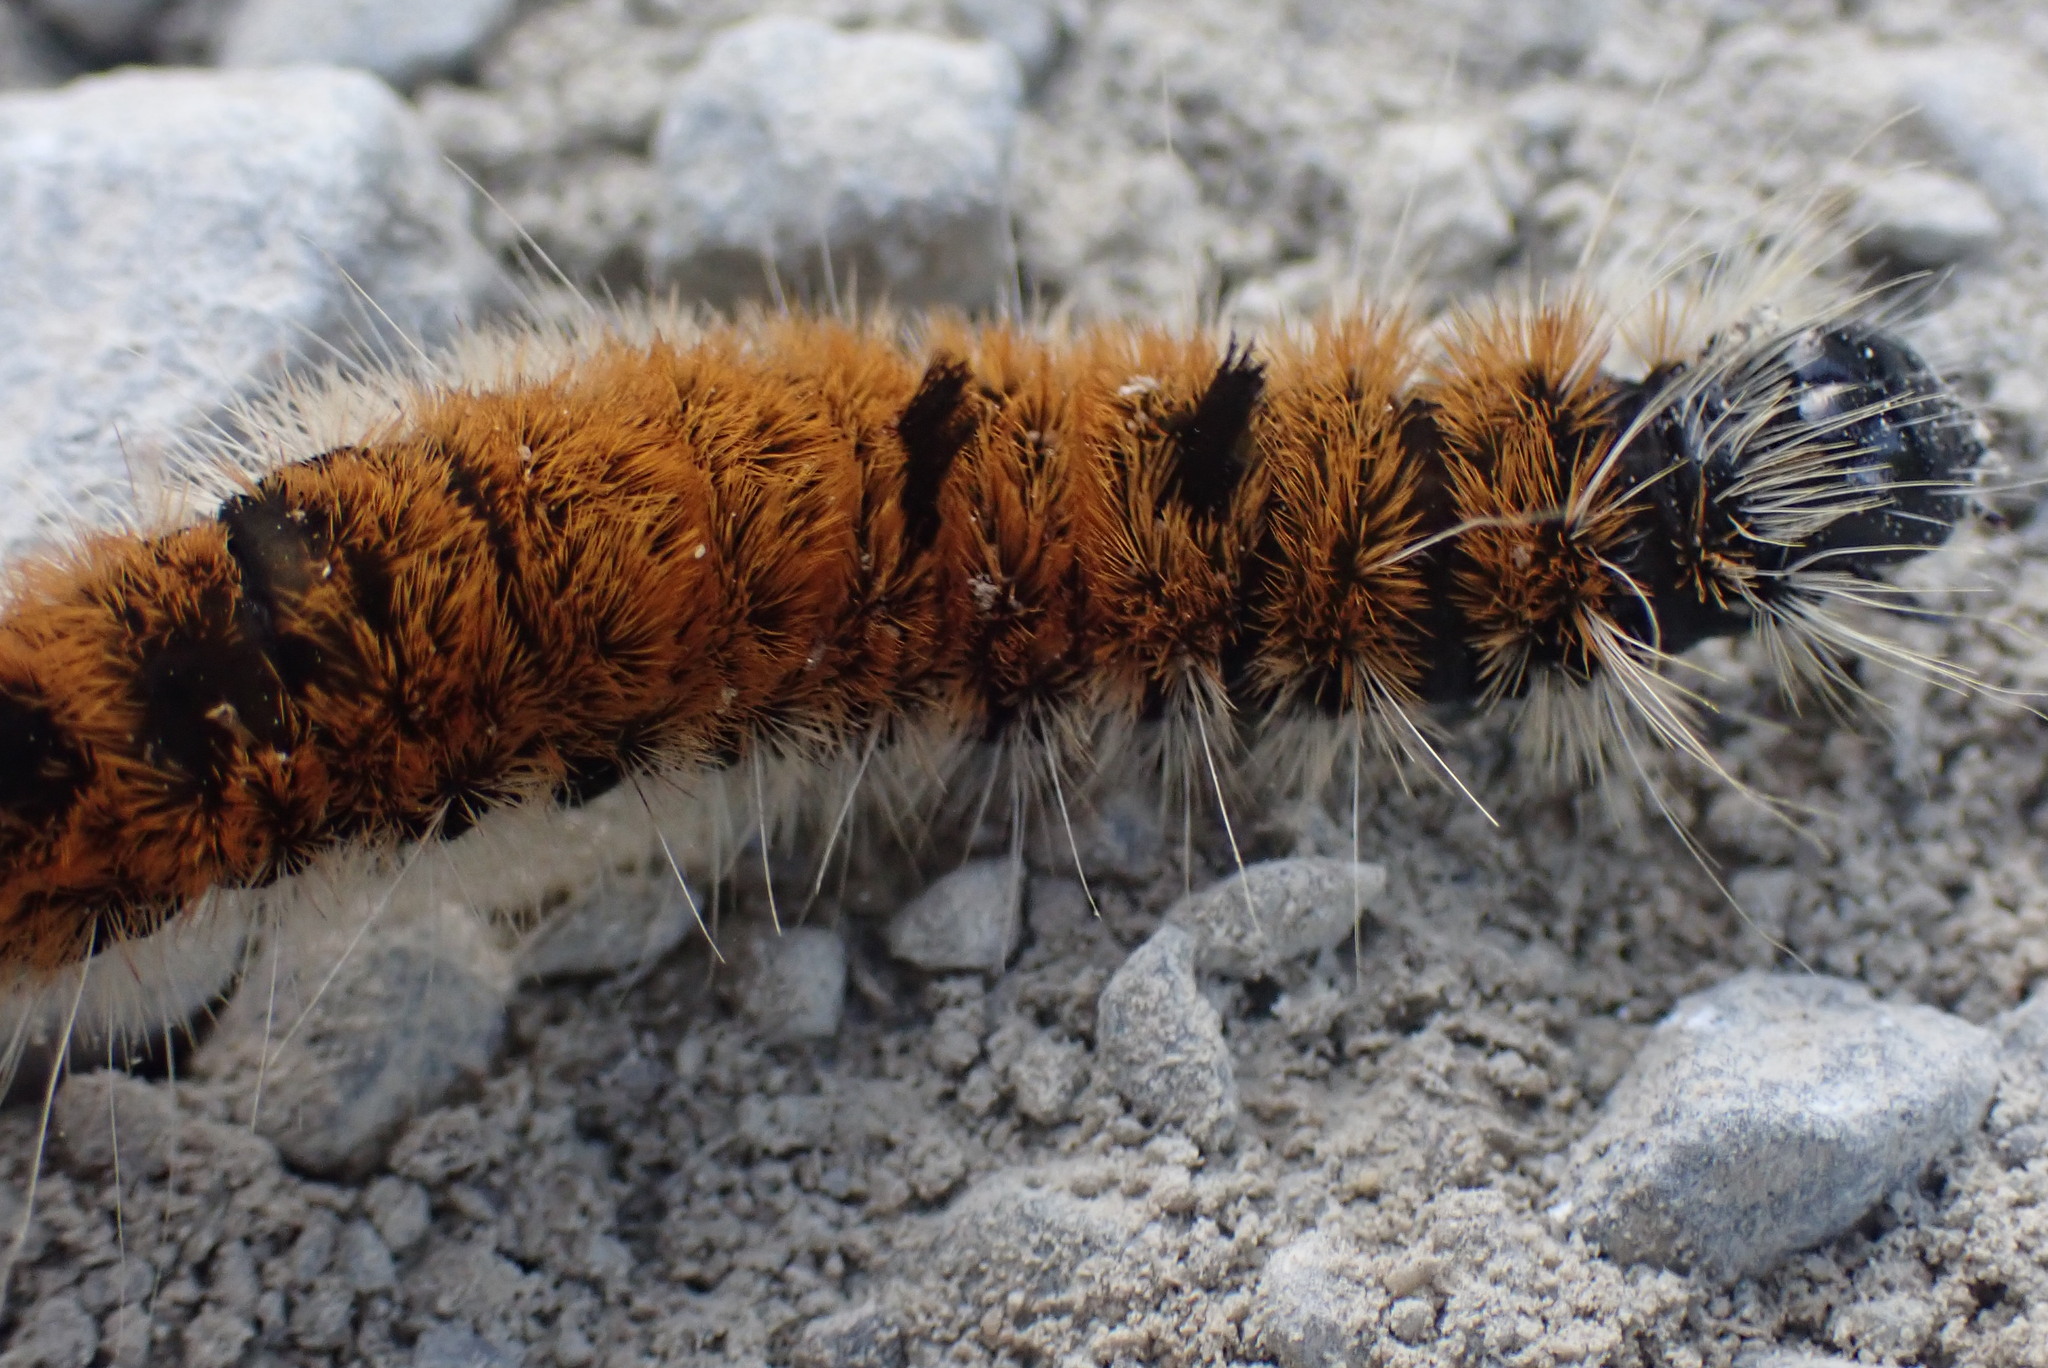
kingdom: Animalia
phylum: Arthropoda
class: Insecta
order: Lepidoptera
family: Noctuidae
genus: Acronicta
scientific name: Acronicta insita
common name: Large gray dagger
